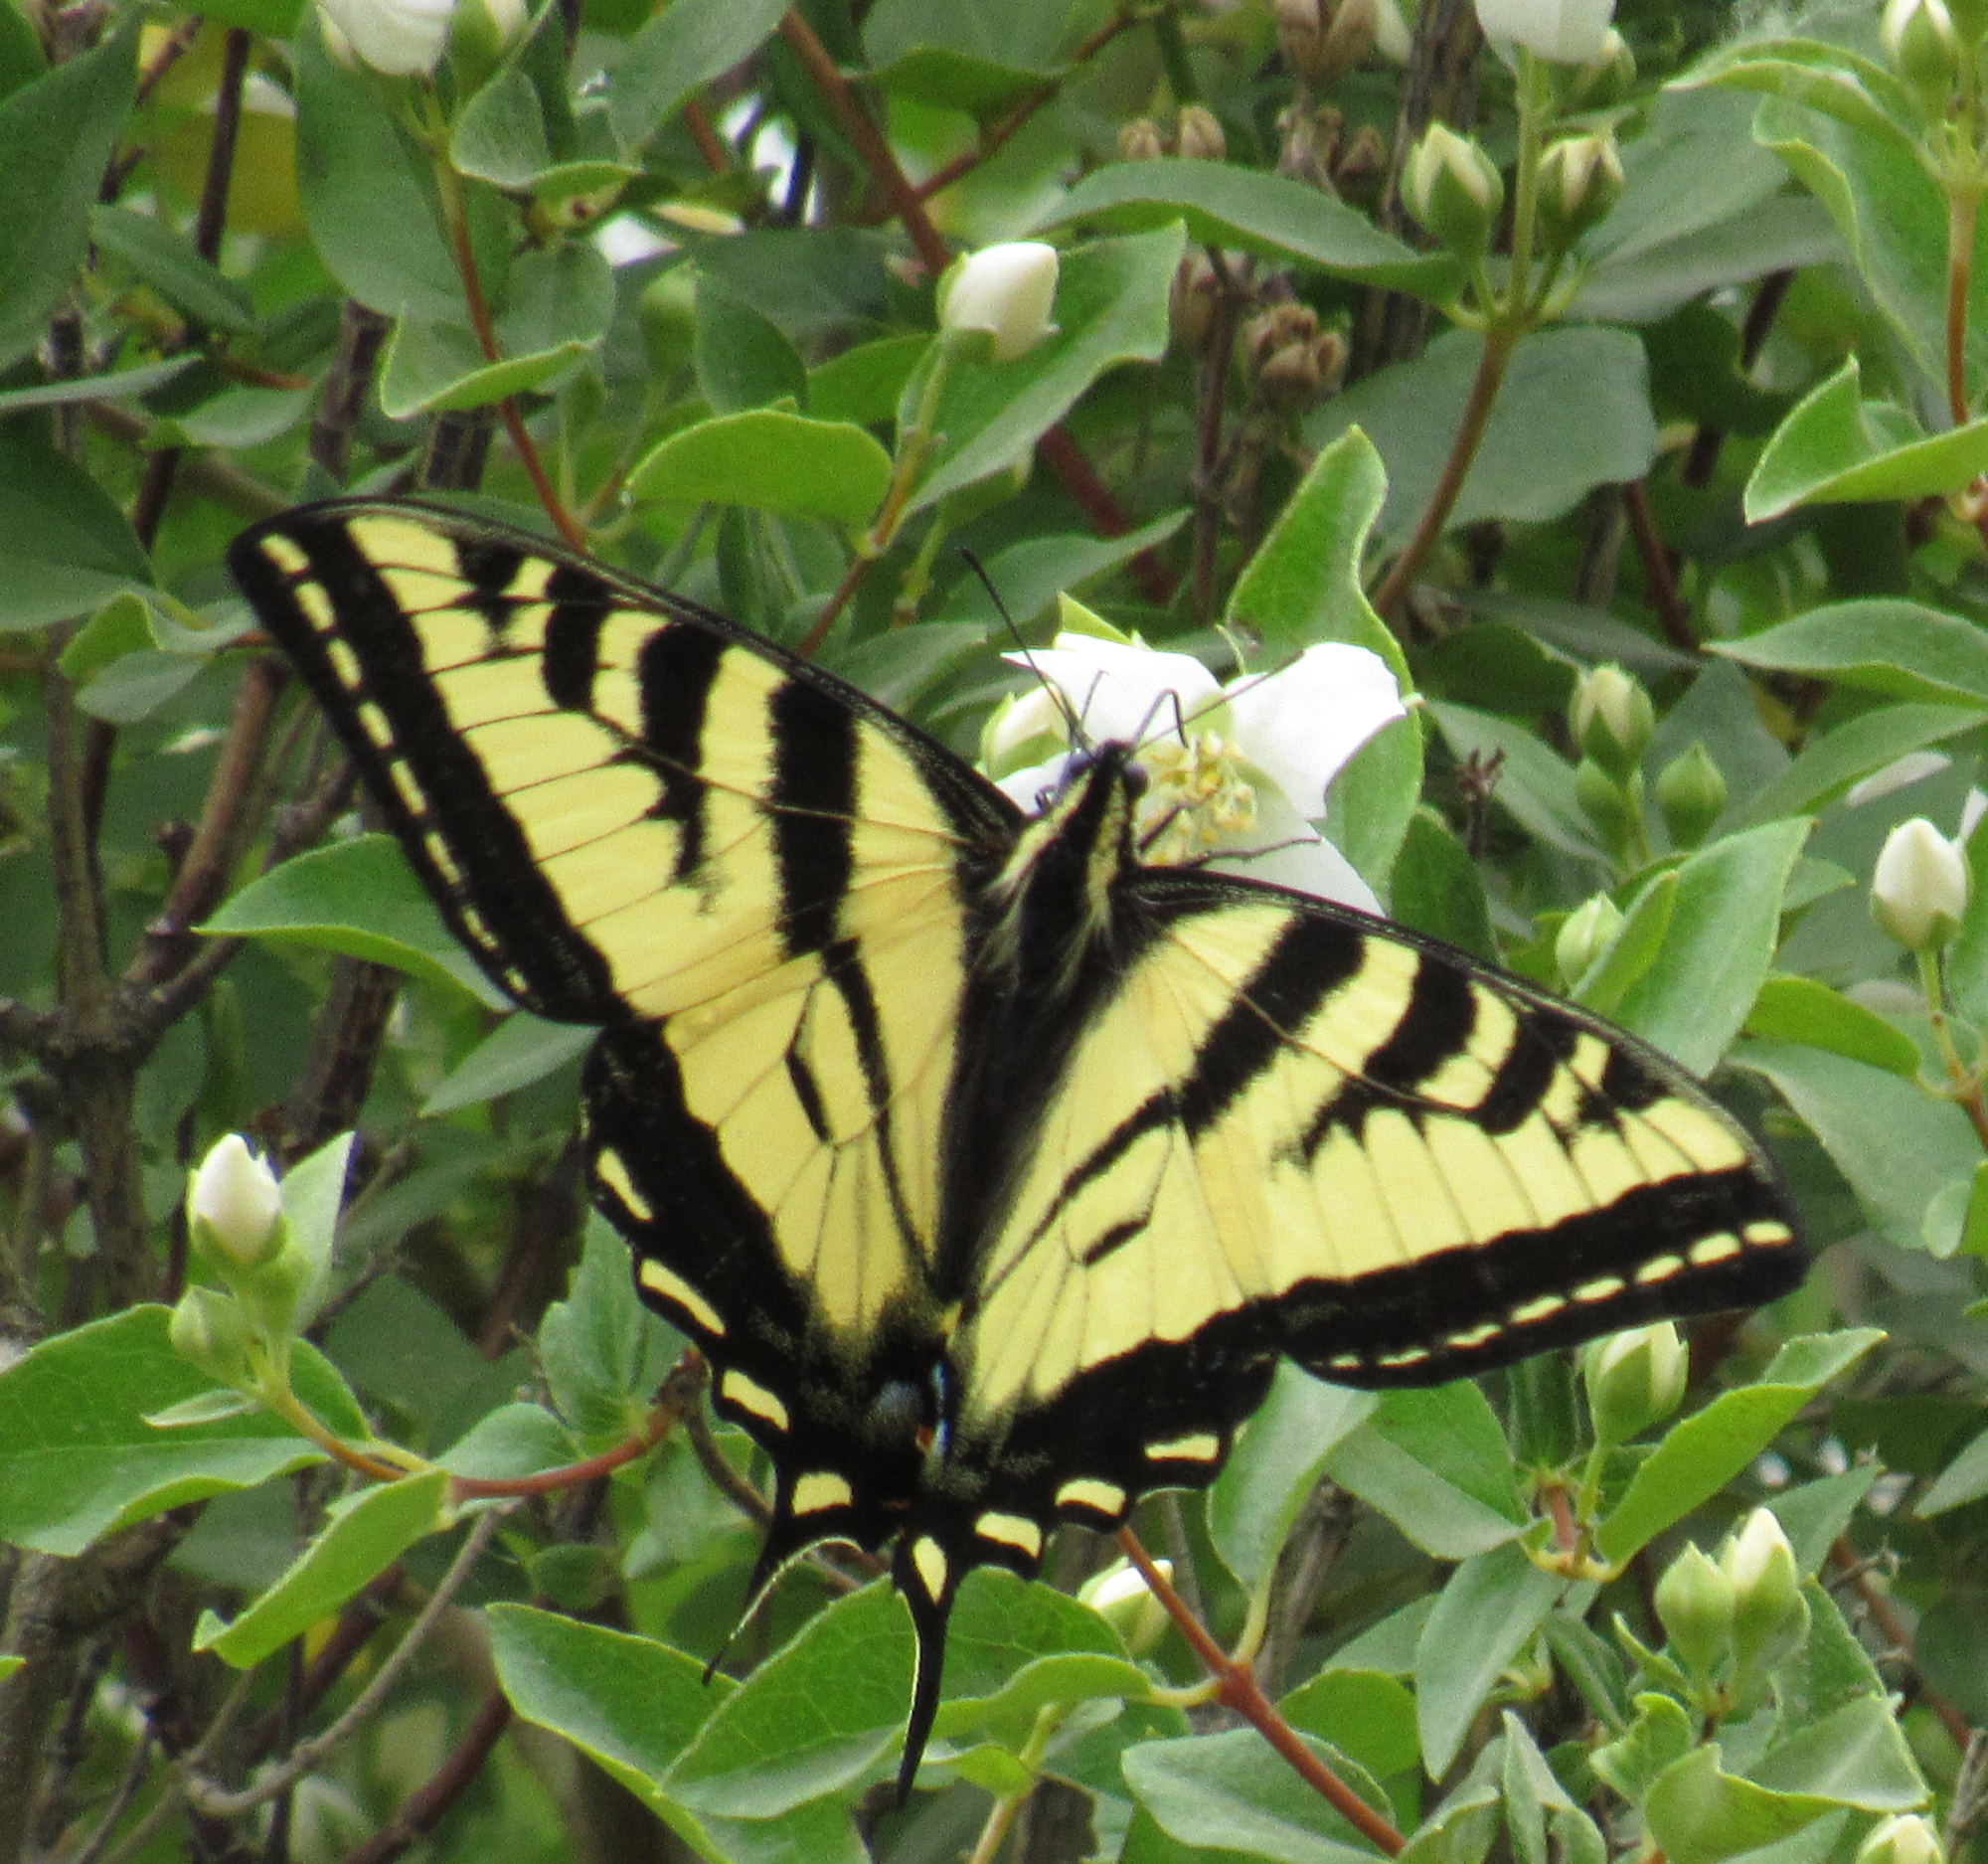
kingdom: Animalia
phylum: Arthropoda
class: Insecta
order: Lepidoptera
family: Papilionidae
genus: Papilio
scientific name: Papilio rutulus
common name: Western tiger swallowtail
